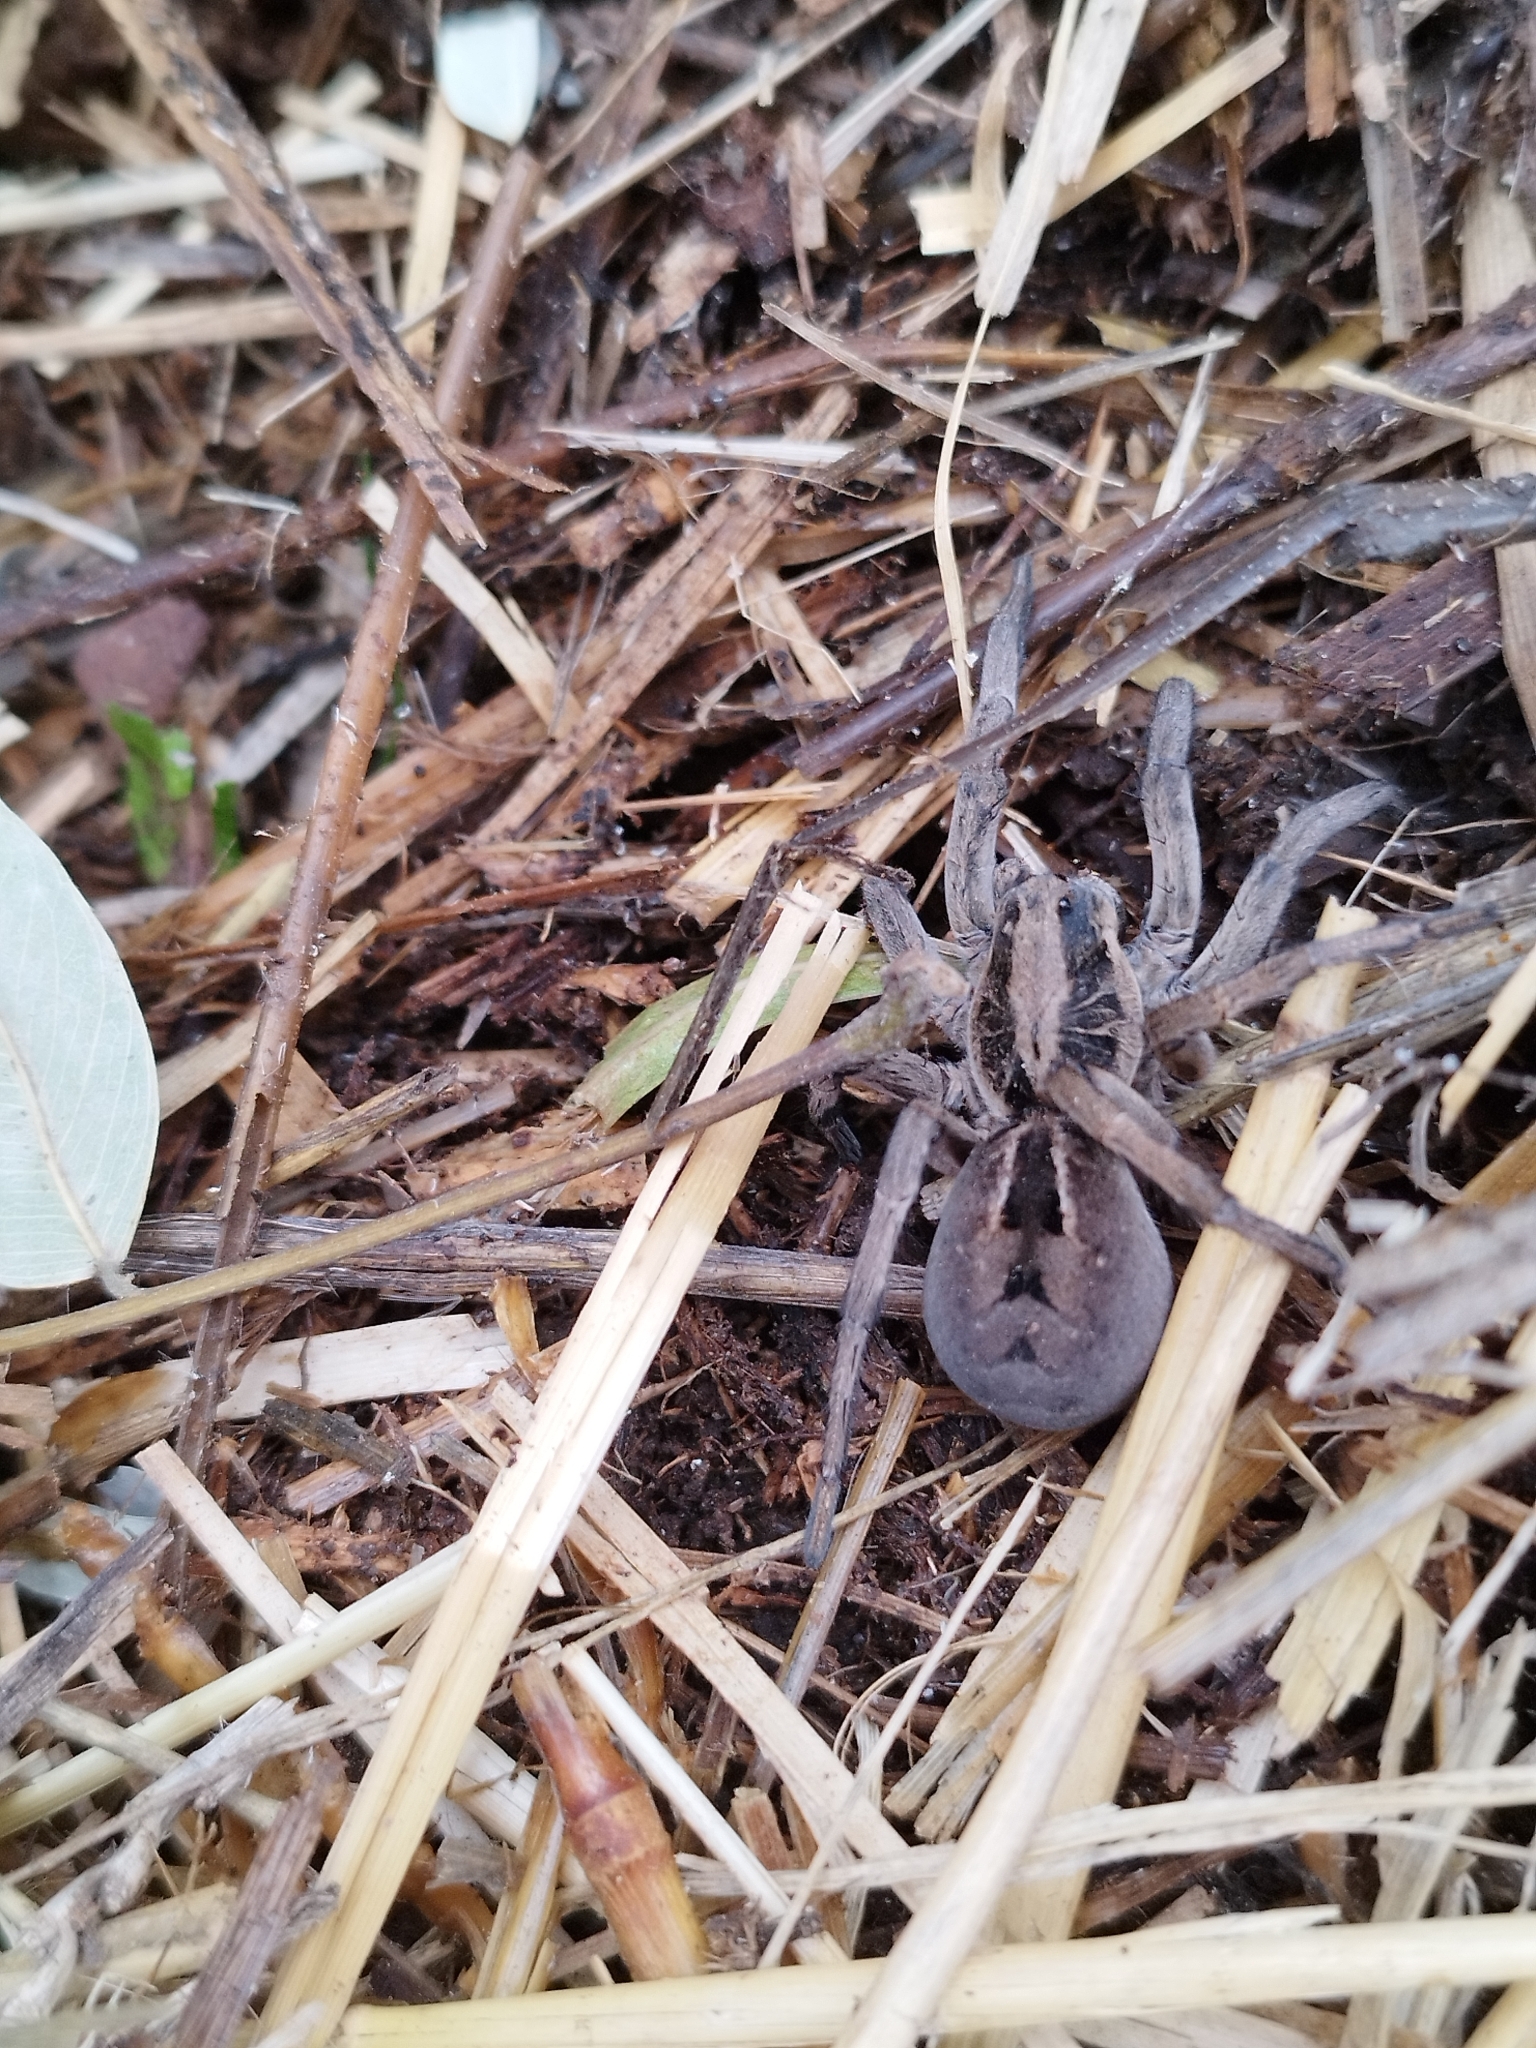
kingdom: Animalia
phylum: Arthropoda
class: Arachnida
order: Araneae
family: Lycosidae
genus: Lycosa
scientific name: Lycosa erythrognatha
